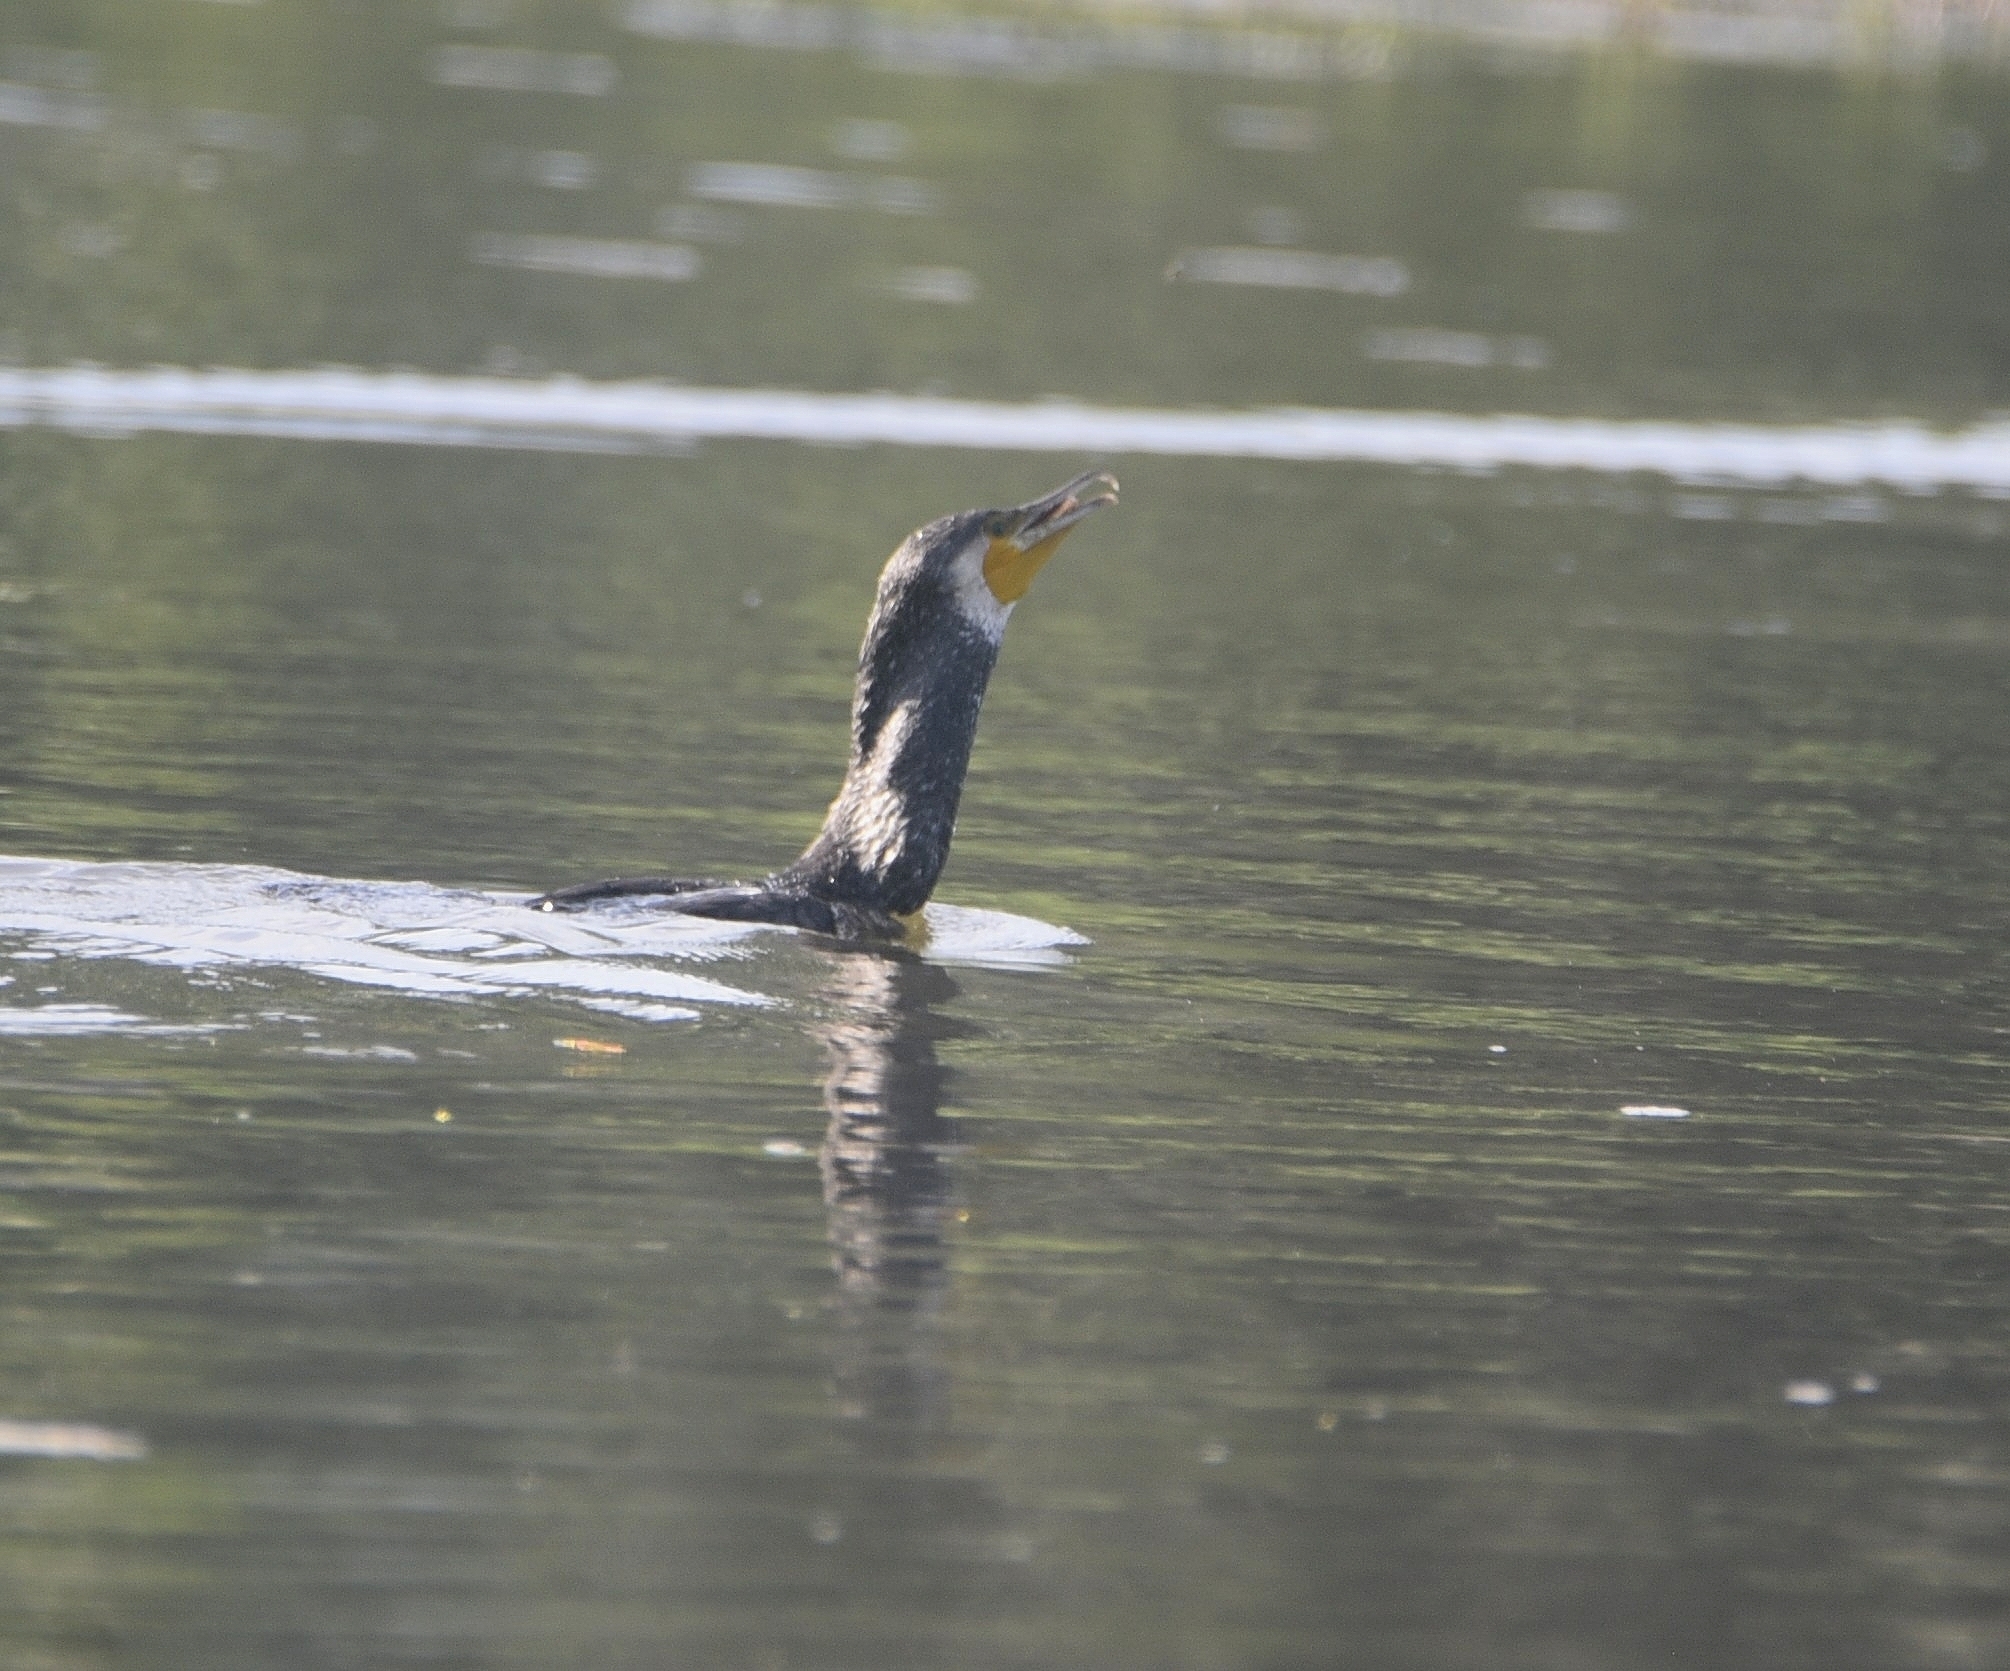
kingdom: Animalia
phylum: Chordata
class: Aves
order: Suliformes
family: Phalacrocoracidae
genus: Phalacrocorax
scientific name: Phalacrocorax carbo
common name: Great cormorant
